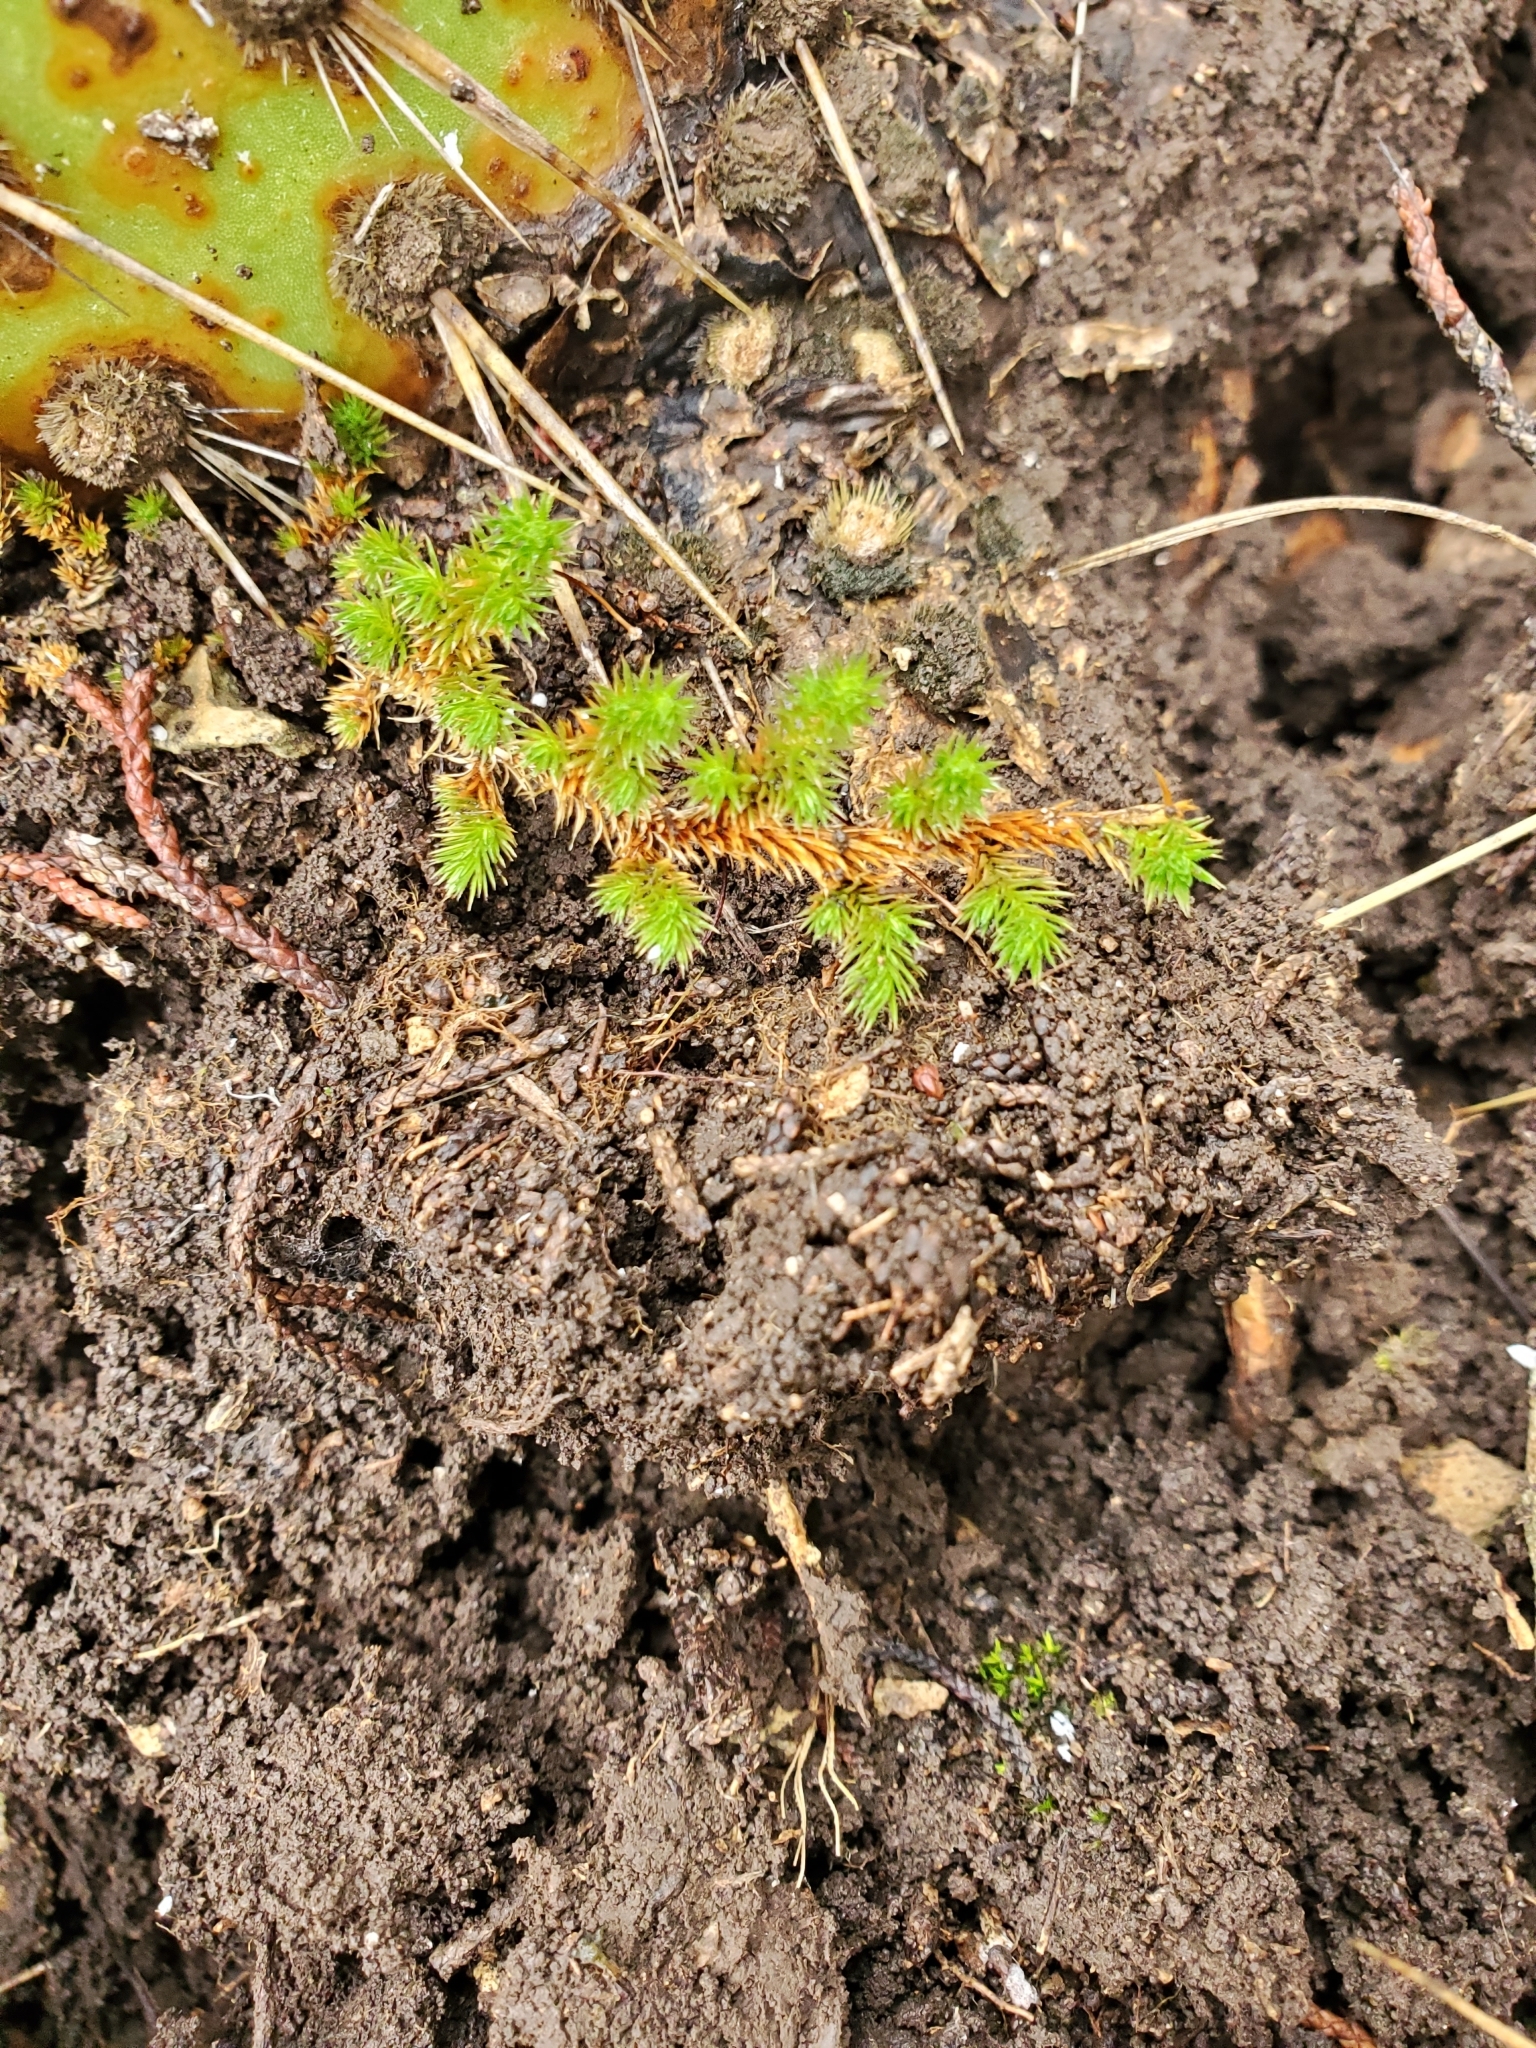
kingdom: Plantae
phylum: Tracheophyta
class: Lycopodiopsida
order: Selaginellales
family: Selaginellaceae
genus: Selaginella
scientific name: Selaginella wrightii
